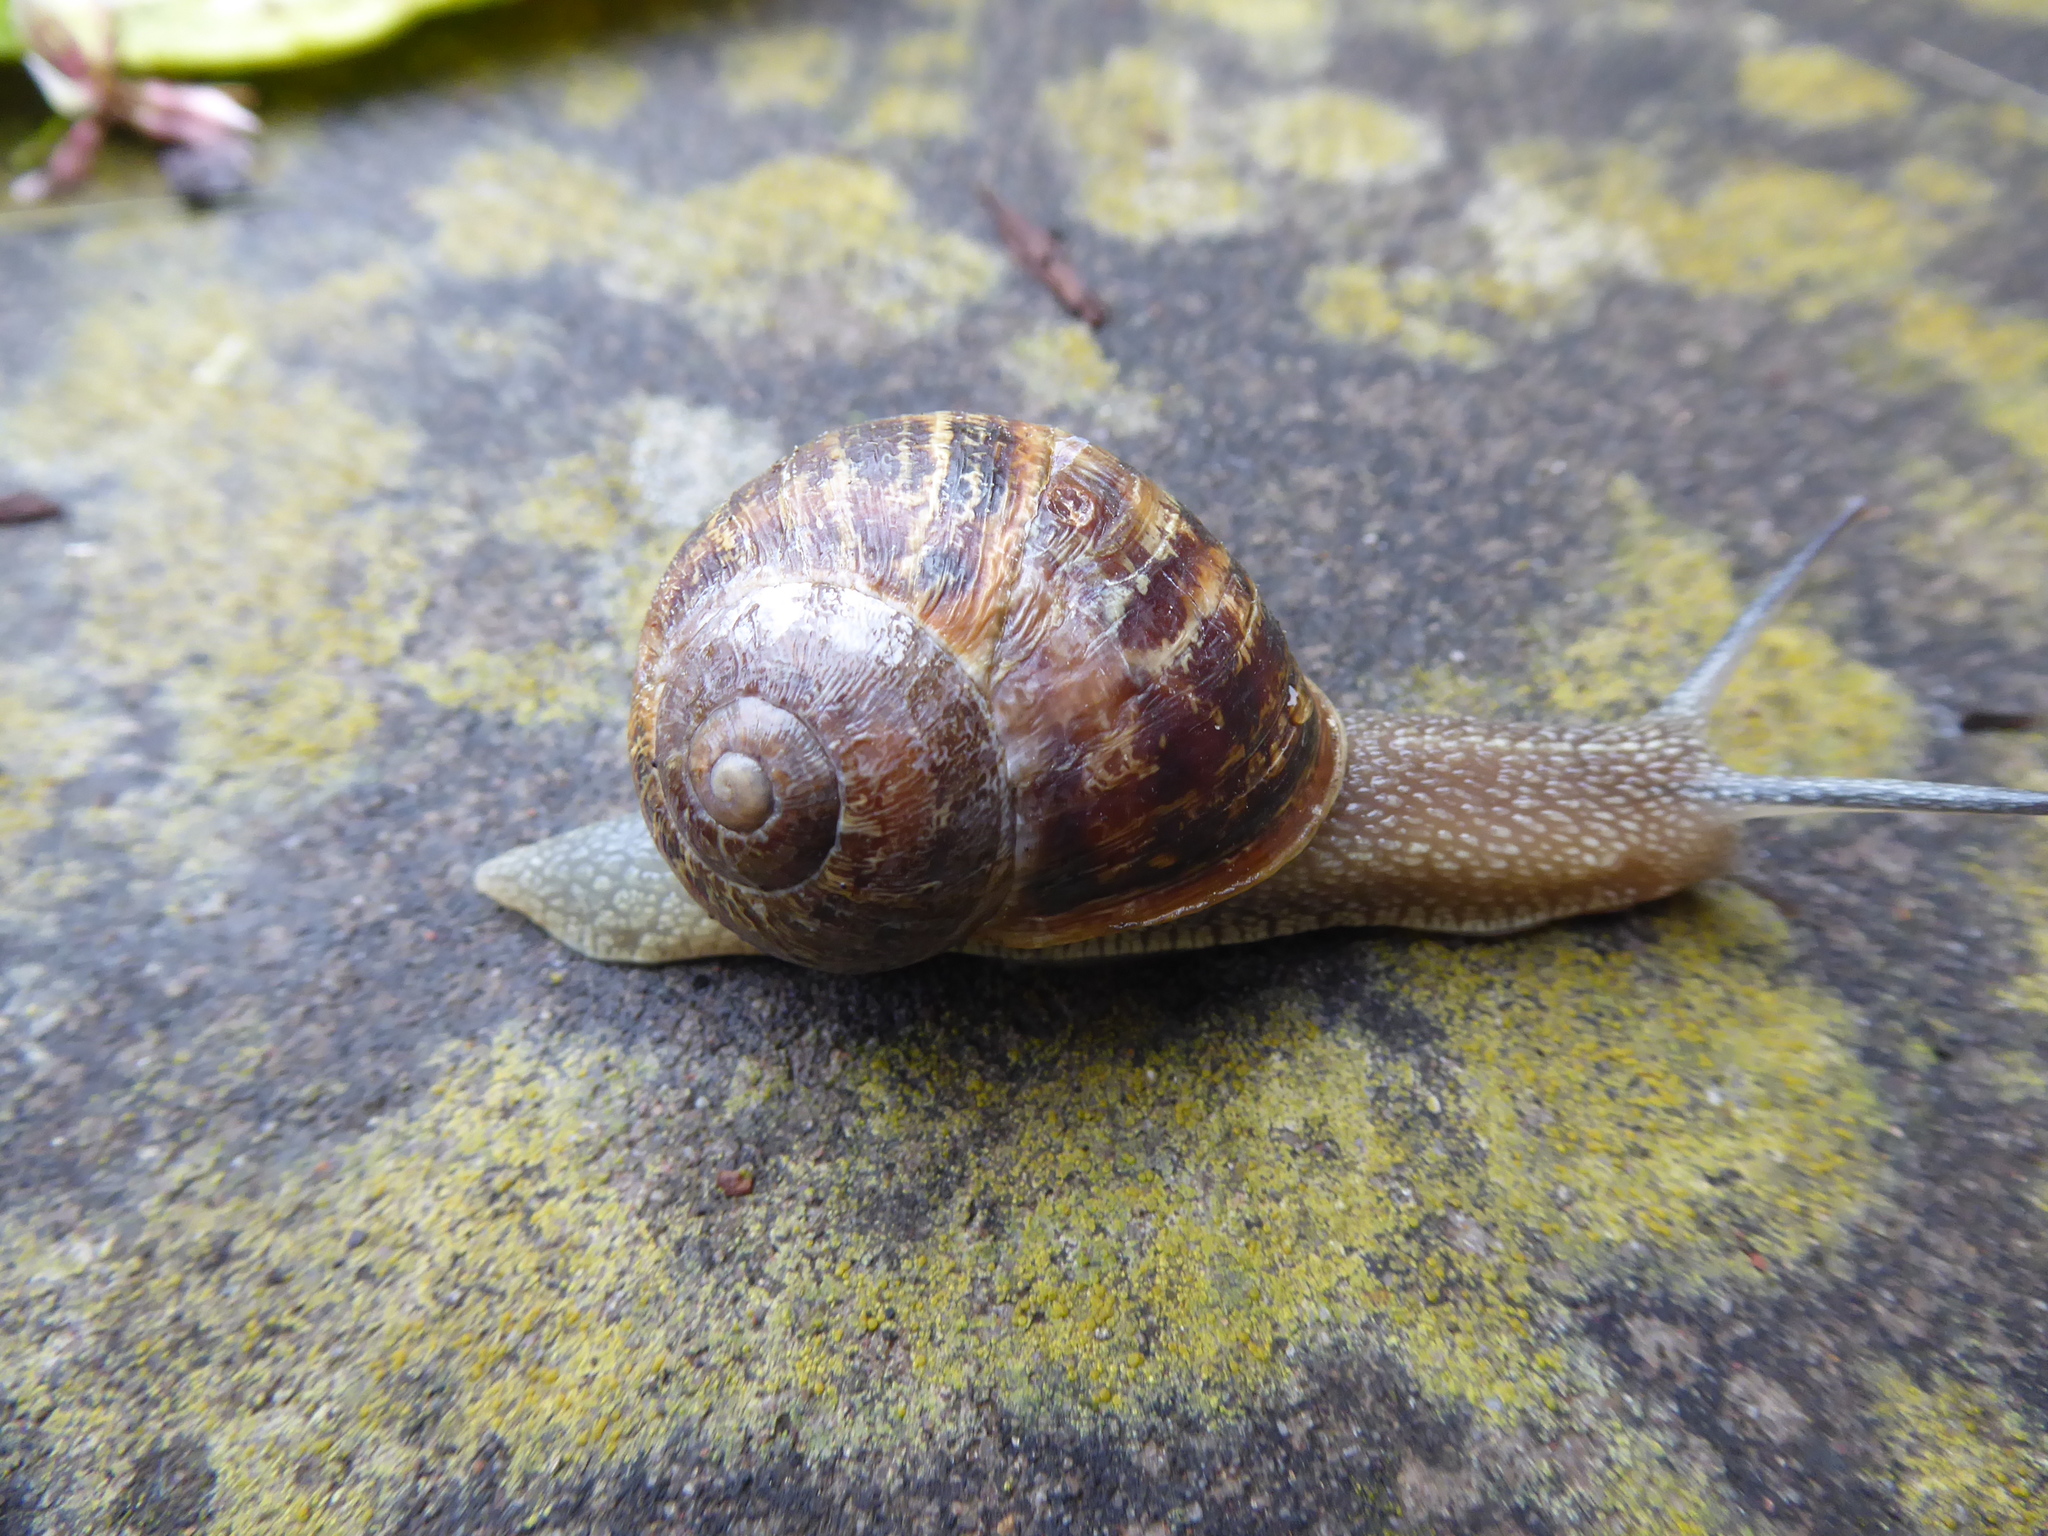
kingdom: Animalia
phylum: Mollusca
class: Gastropoda
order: Stylommatophora
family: Helicidae
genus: Cornu
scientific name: Cornu aspersum
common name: Brown garden snail
